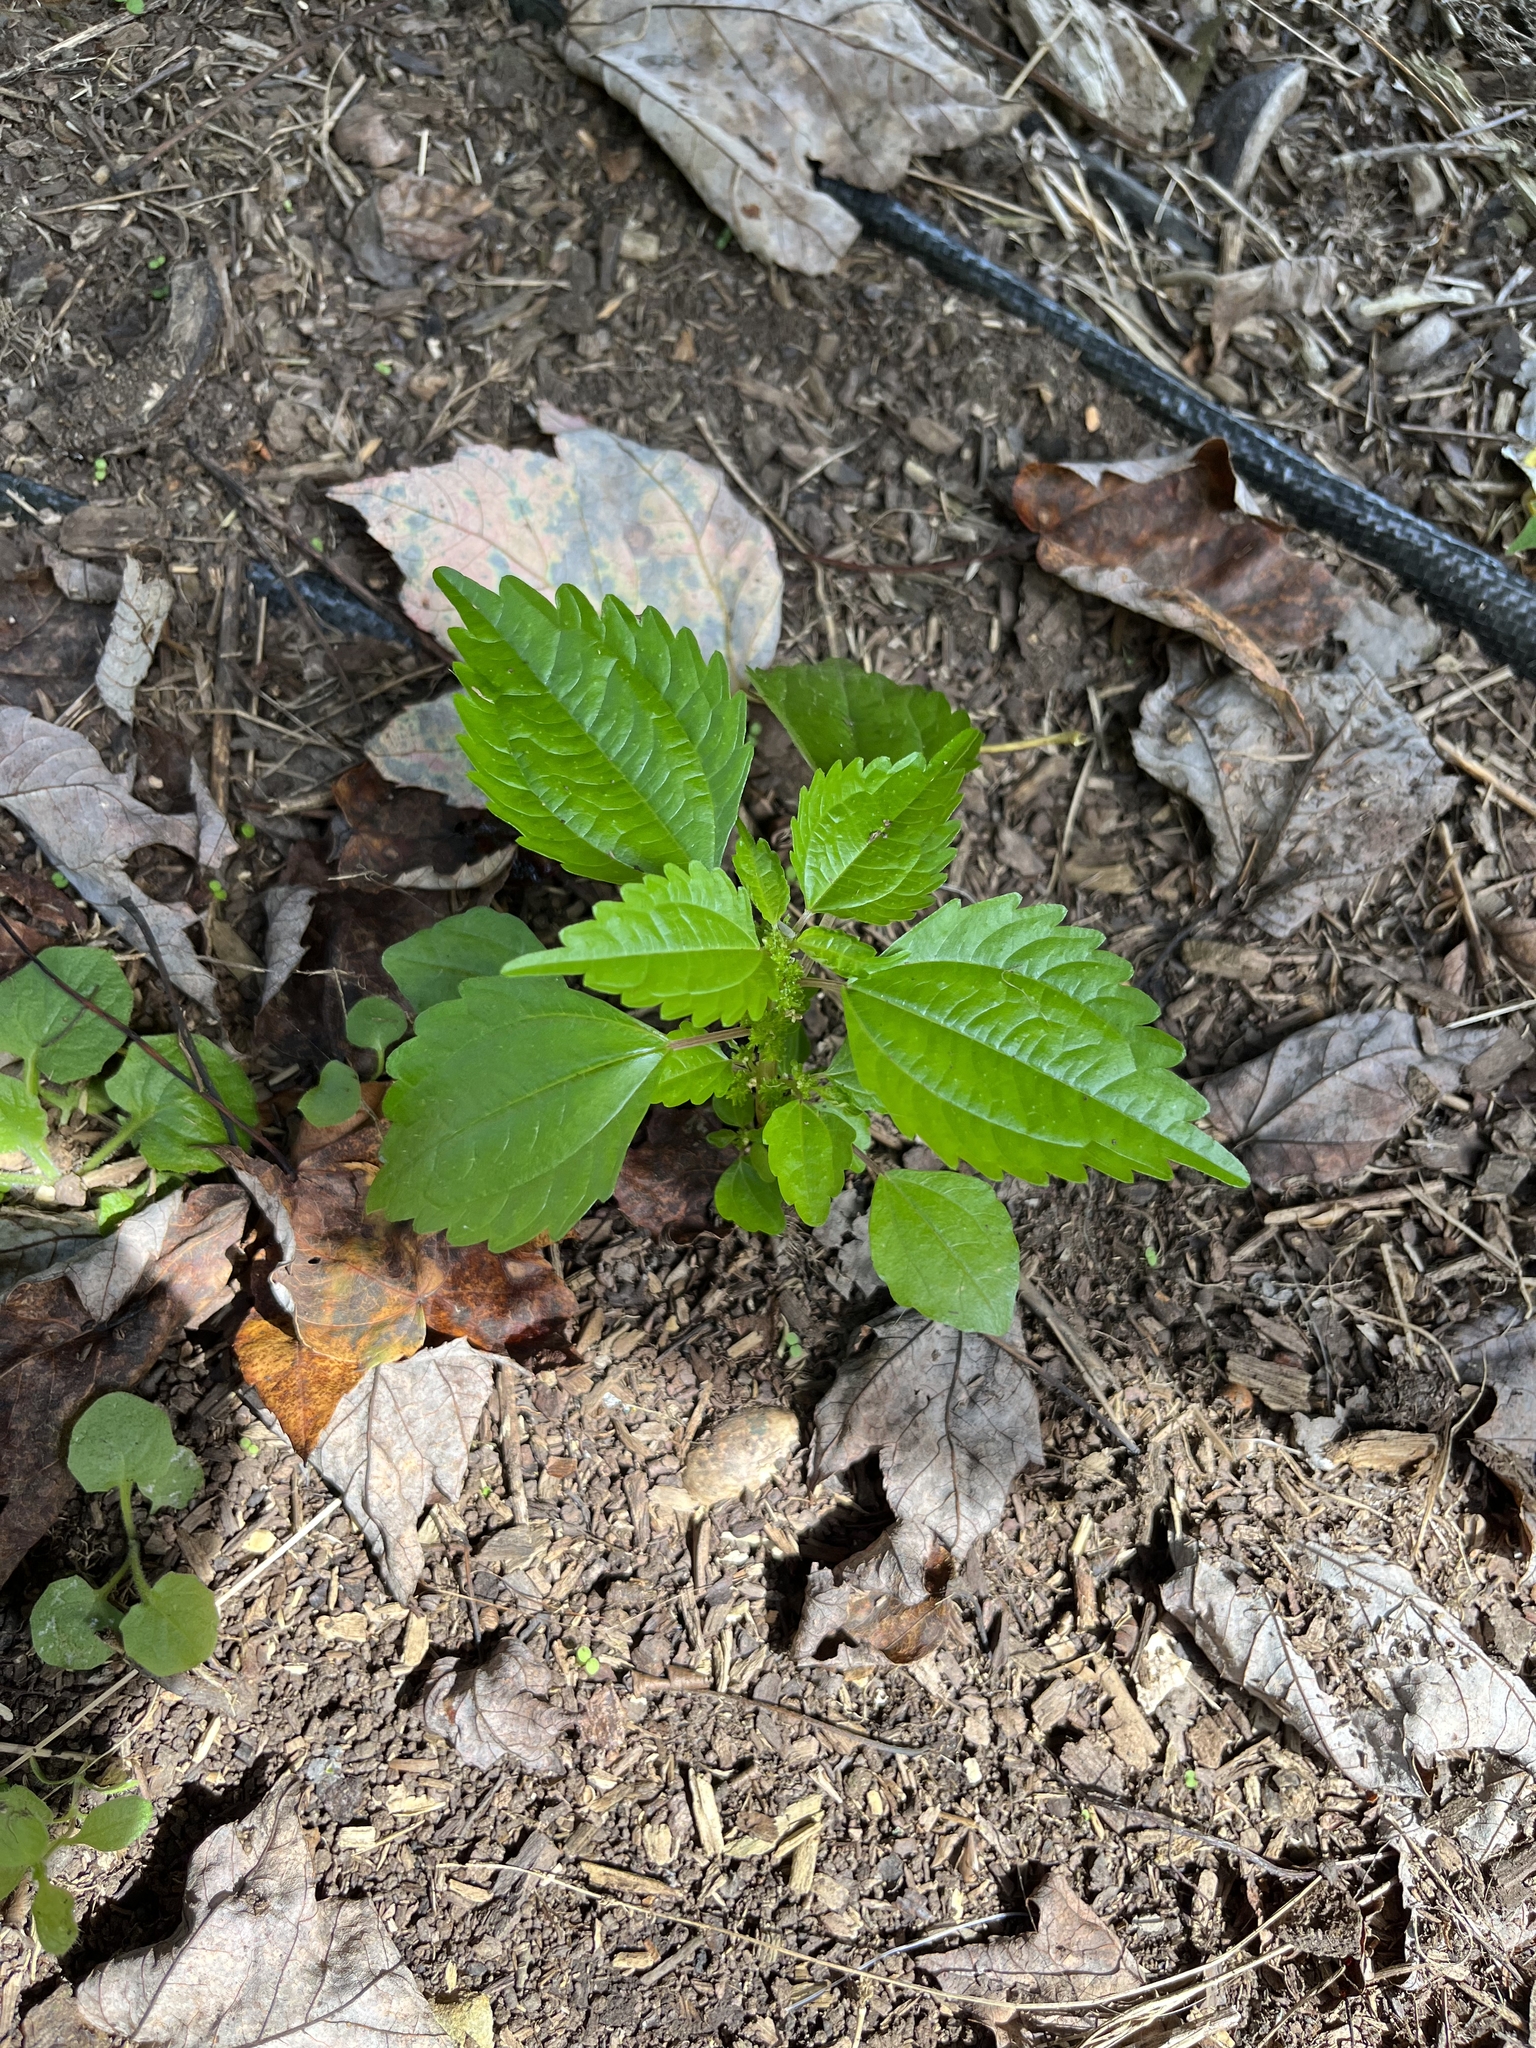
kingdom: Plantae
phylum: Tracheophyta
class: Magnoliopsida
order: Rosales
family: Urticaceae
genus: Pilea
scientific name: Pilea pumila
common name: Clearweed
